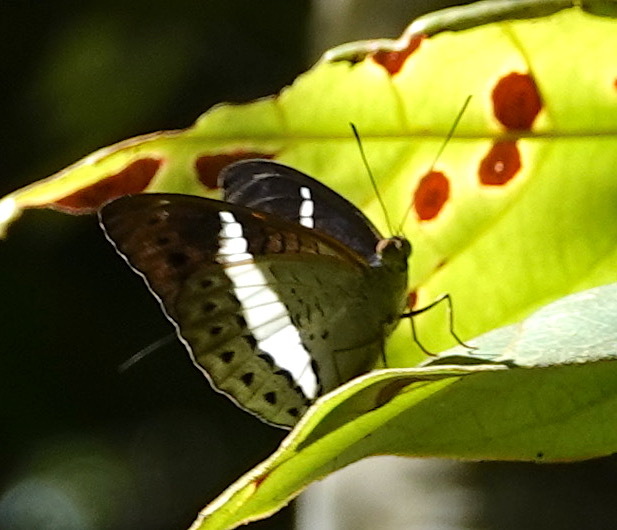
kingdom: Animalia
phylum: Arthropoda
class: Insecta
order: Lepidoptera
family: Nymphalidae
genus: Tanaecia
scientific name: Tanaecia amisa
